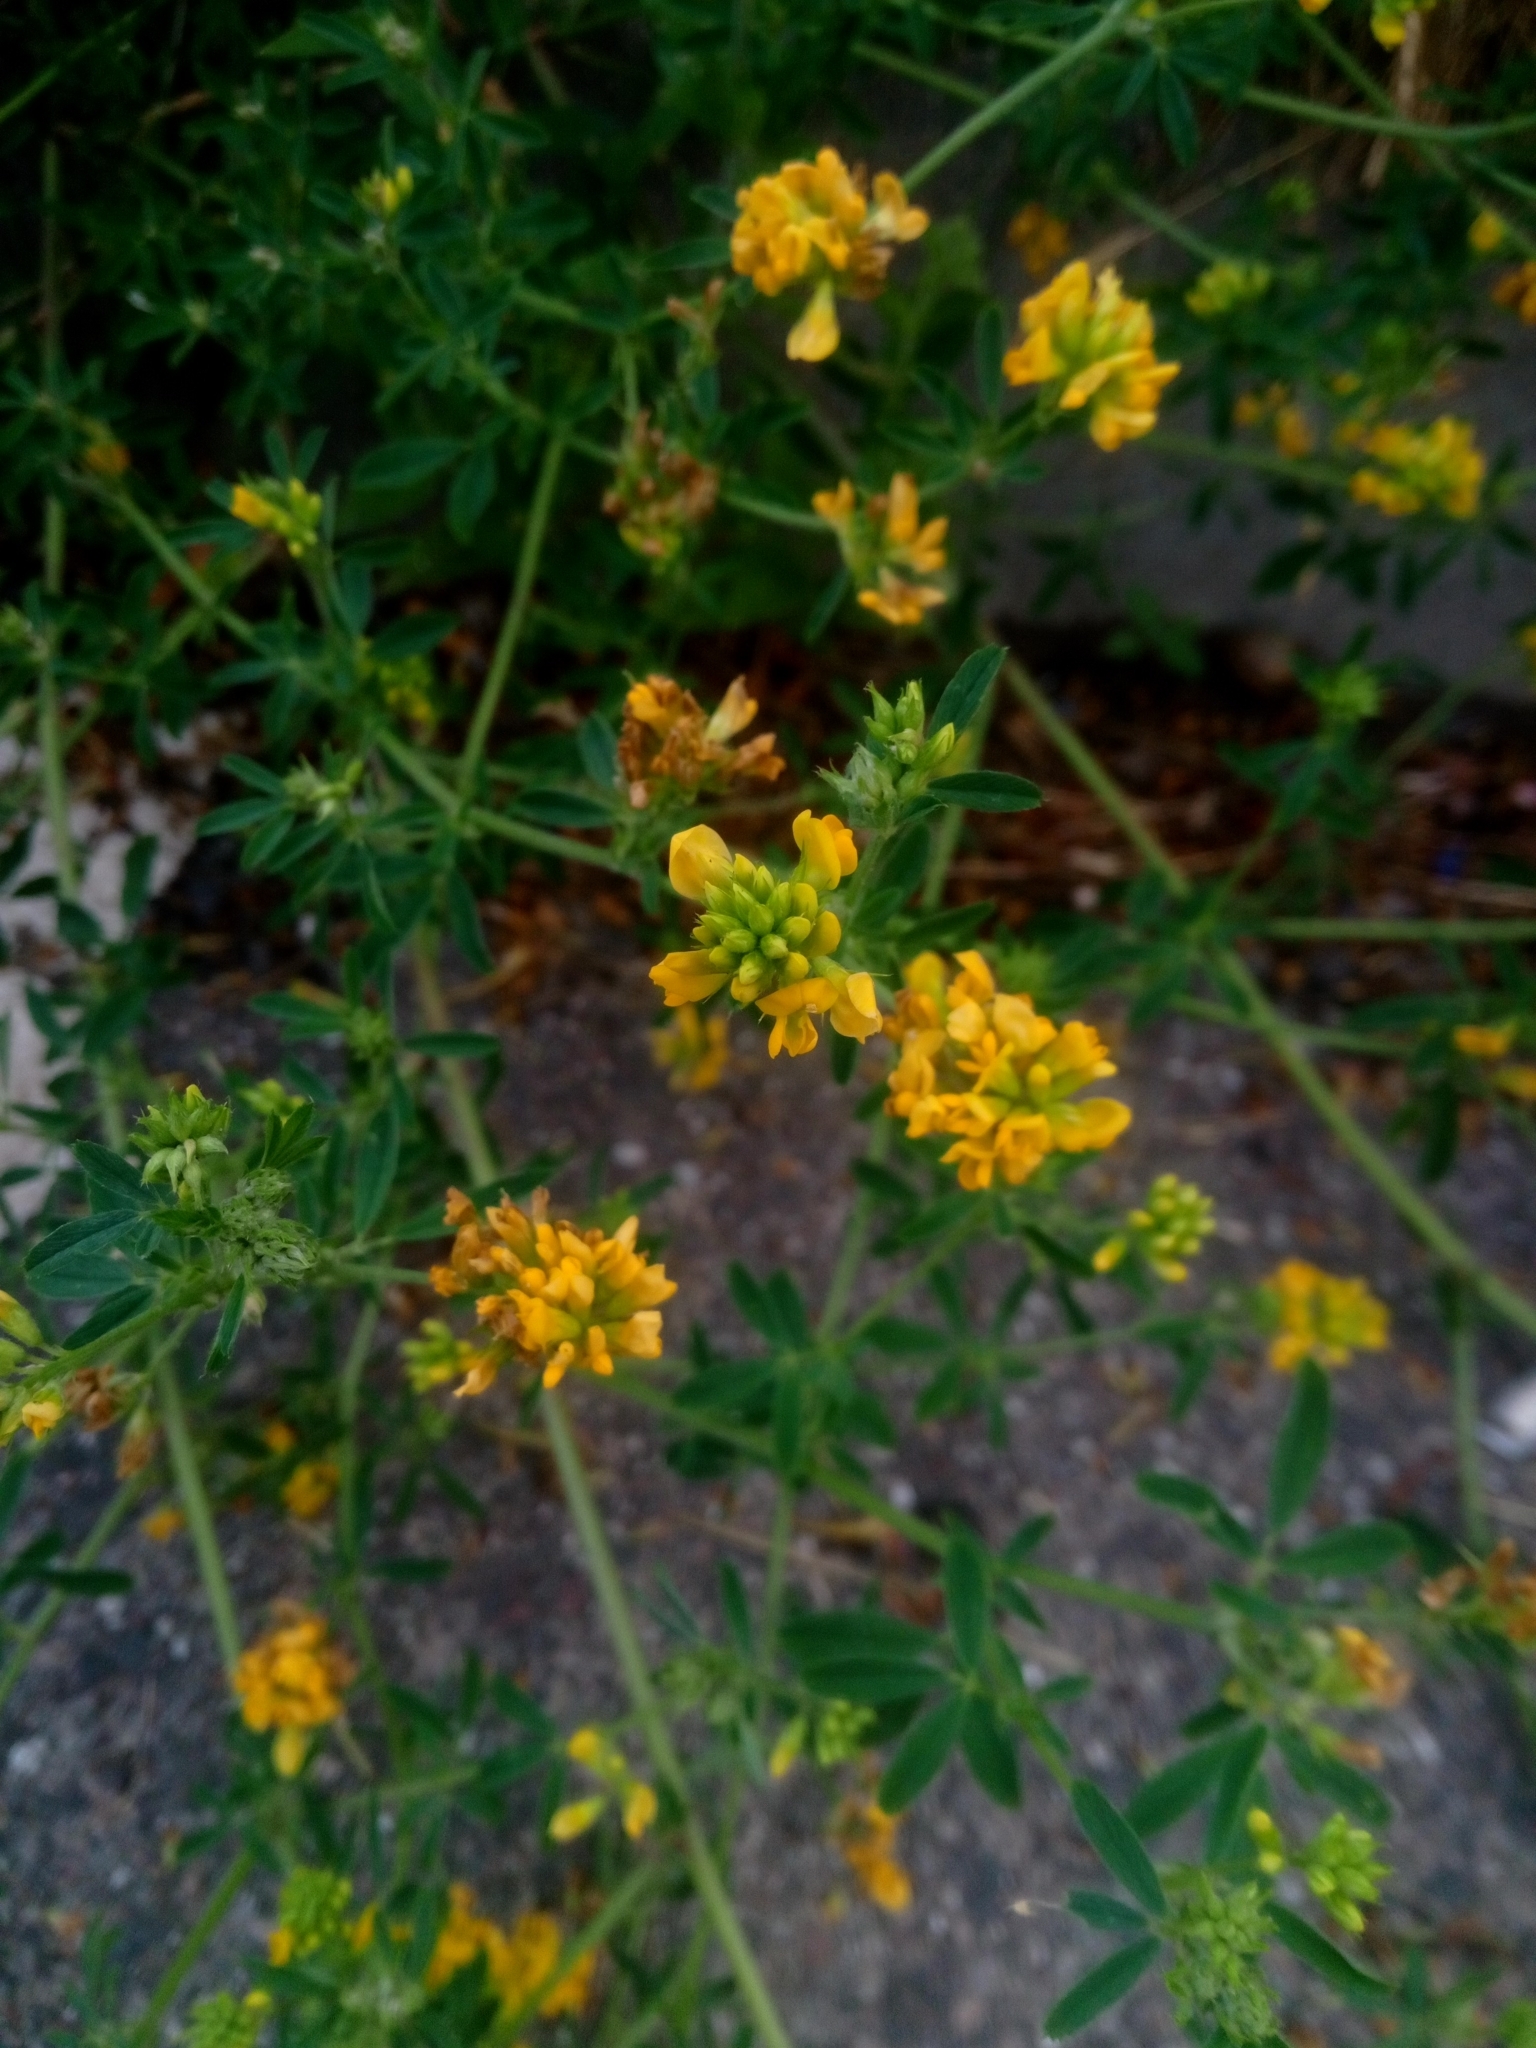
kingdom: Plantae
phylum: Tracheophyta
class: Magnoliopsida
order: Fabales
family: Fabaceae
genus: Medicago
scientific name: Medicago falcata
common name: Sickle medick
